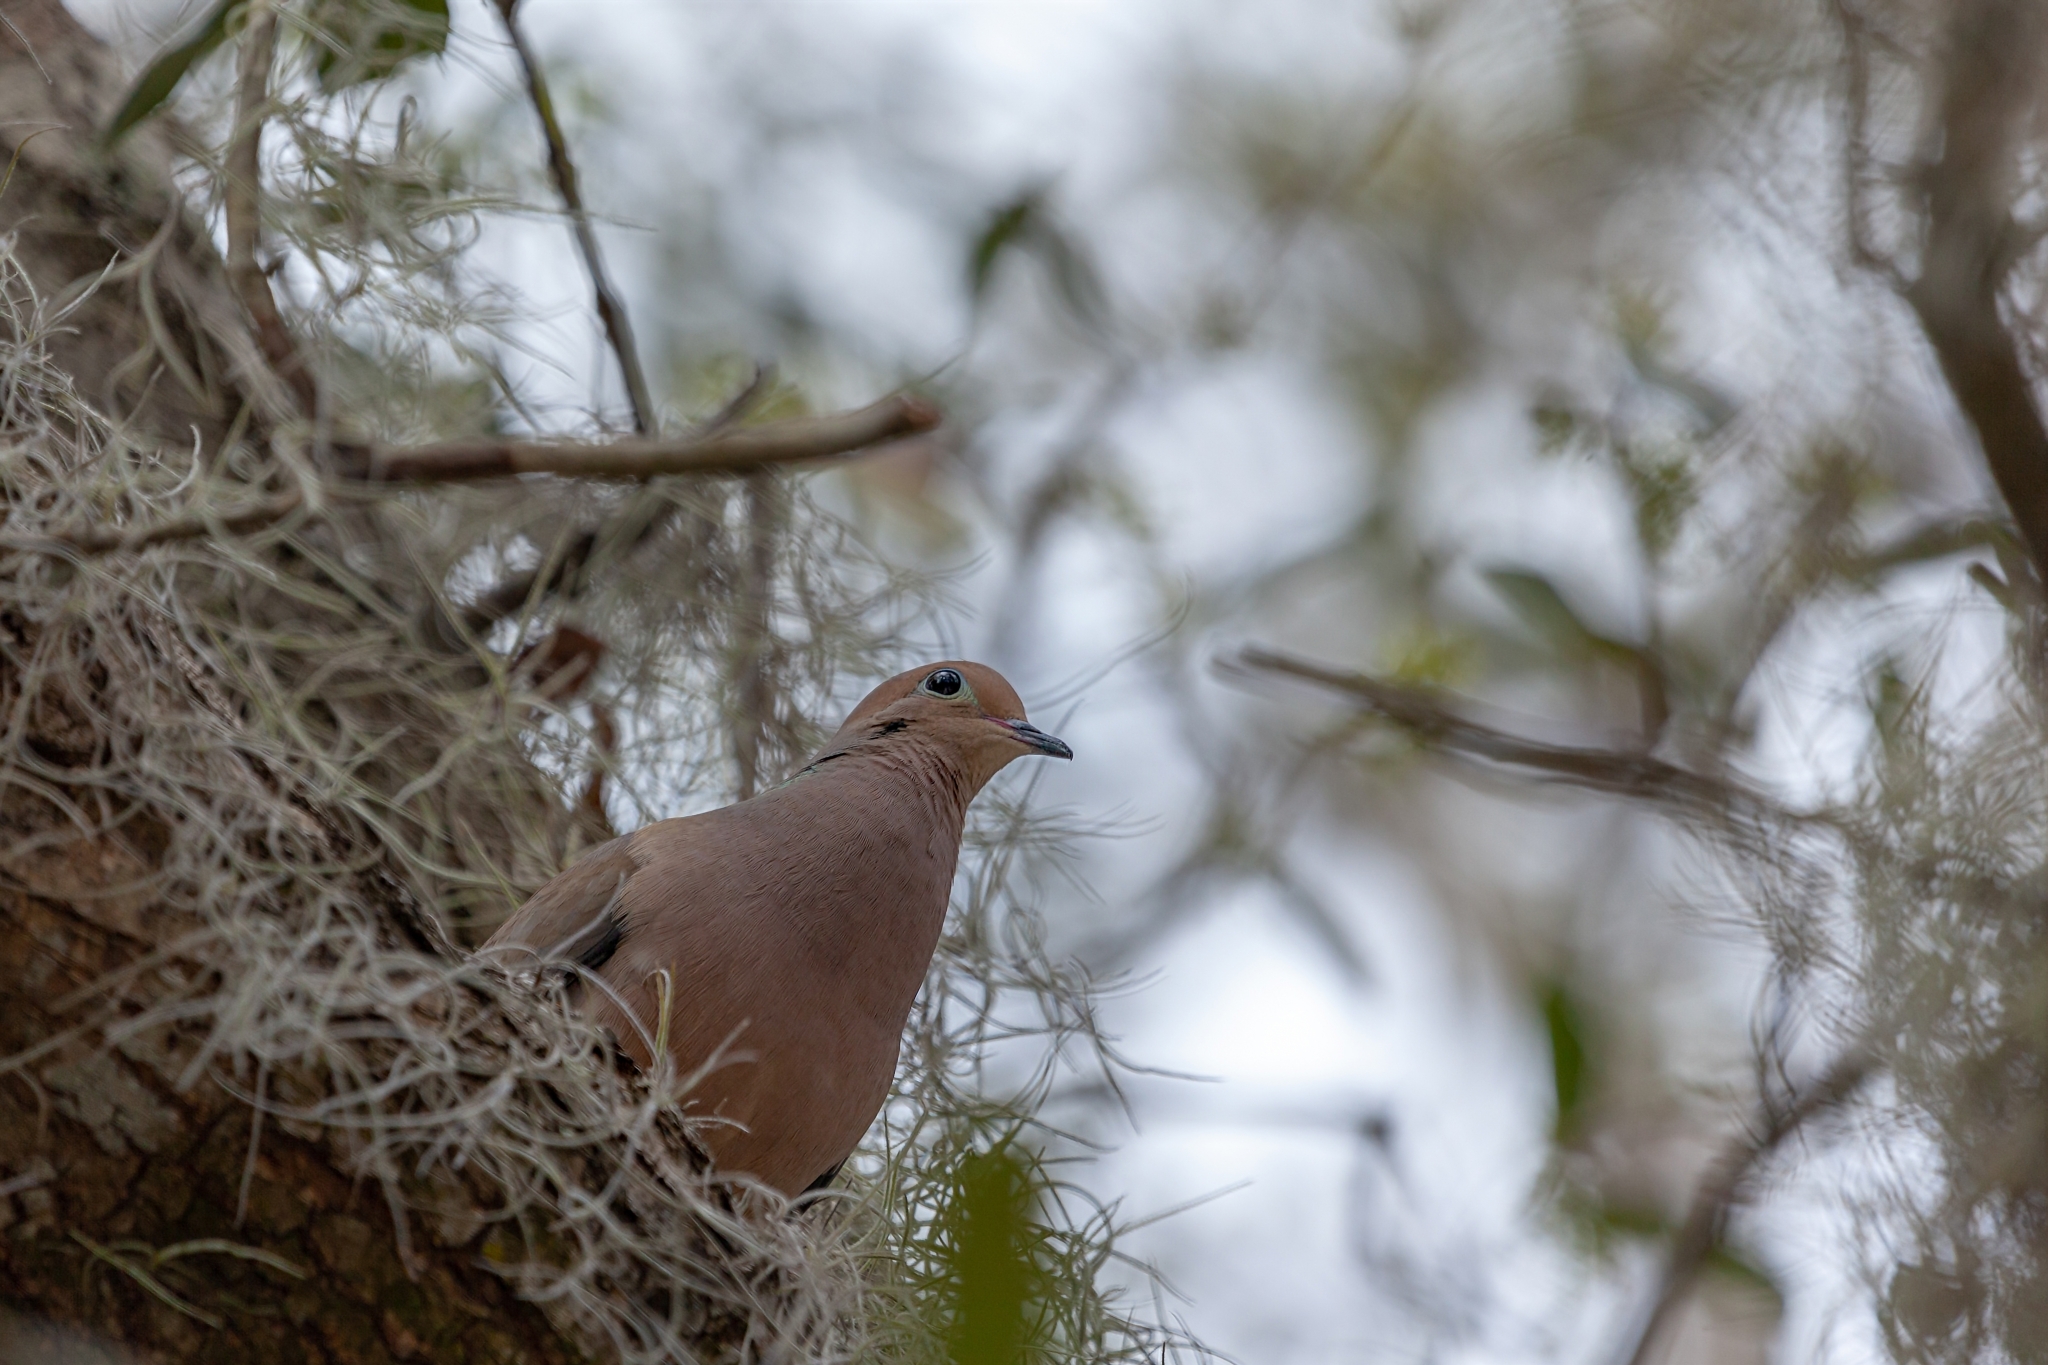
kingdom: Animalia
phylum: Chordata
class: Aves
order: Columbiformes
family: Columbidae
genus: Zenaida
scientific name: Zenaida macroura
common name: Mourning dove
